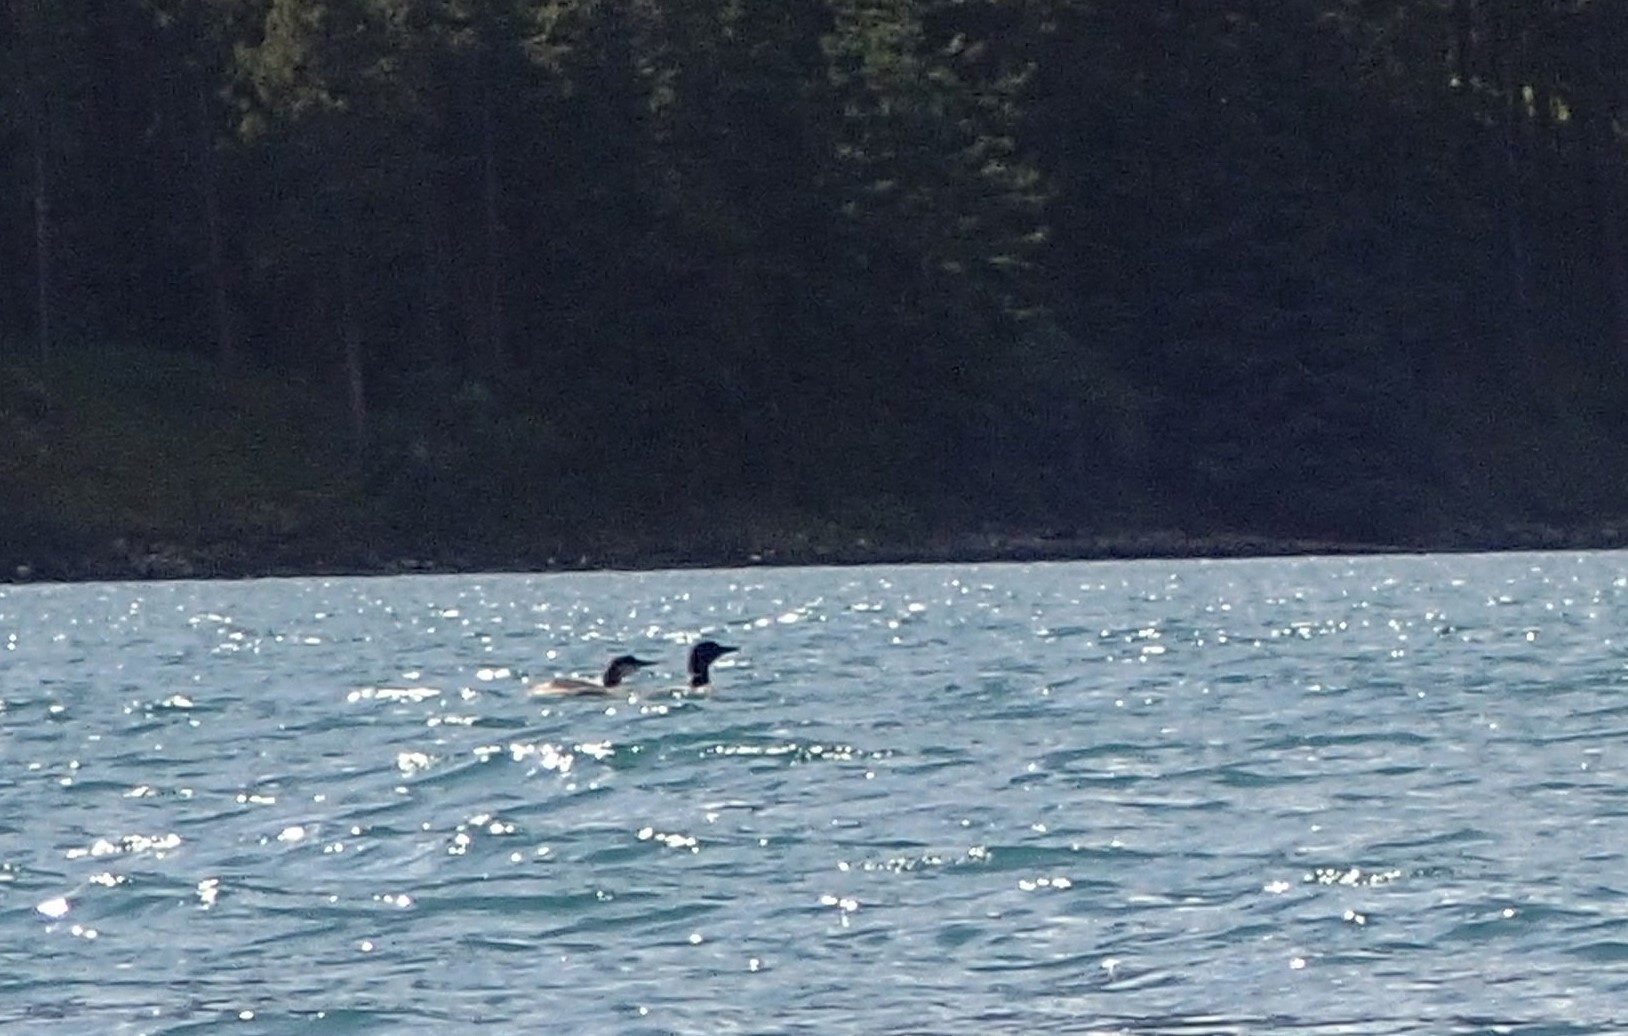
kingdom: Animalia
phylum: Chordata
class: Aves
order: Gaviiformes
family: Gaviidae
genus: Gavia
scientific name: Gavia immer
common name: Common loon
